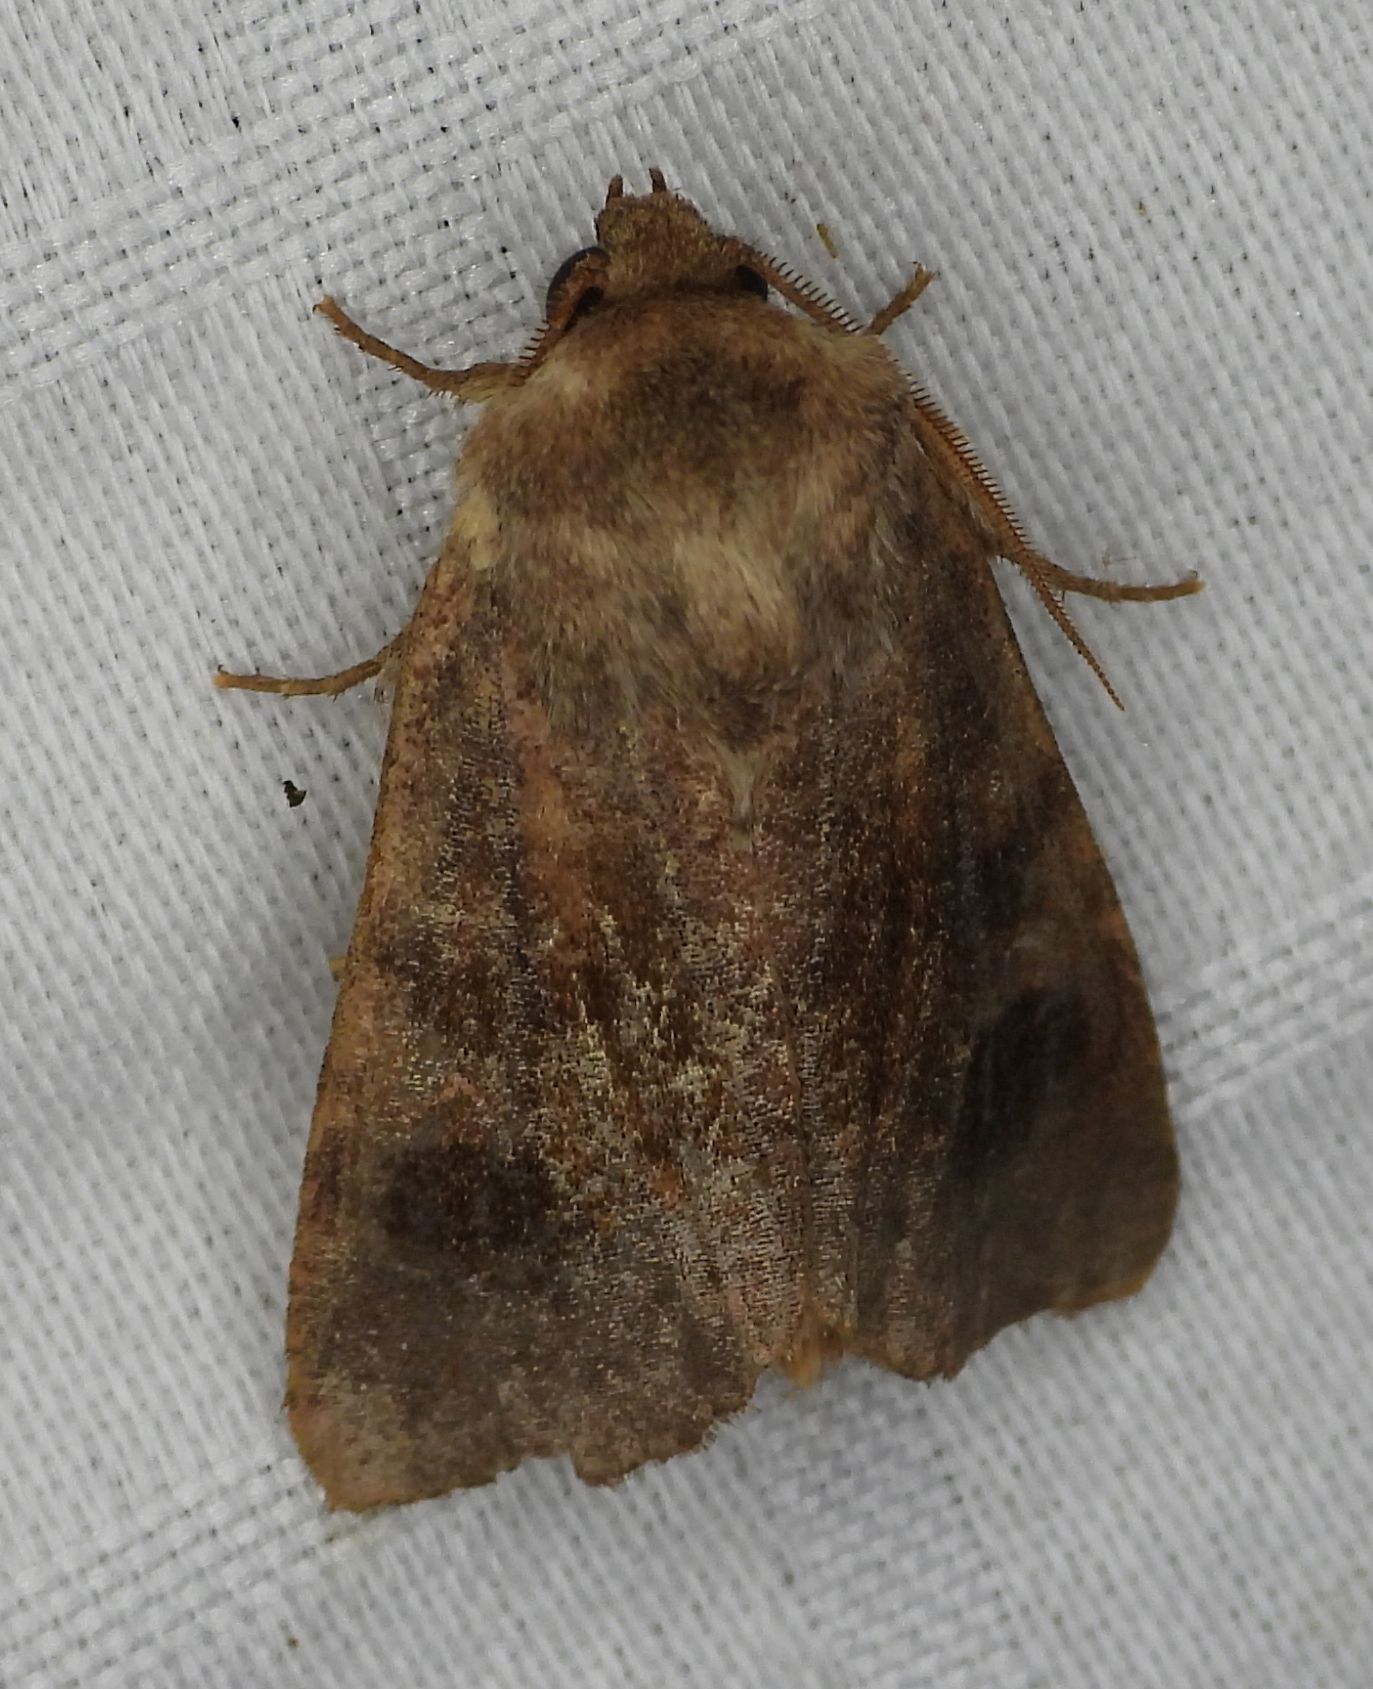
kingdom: Animalia
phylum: Arthropoda
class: Insecta
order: Lepidoptera
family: Noctuidae
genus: Nephelodes
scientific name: Nephelodes minians
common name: Bronzed cutworm
